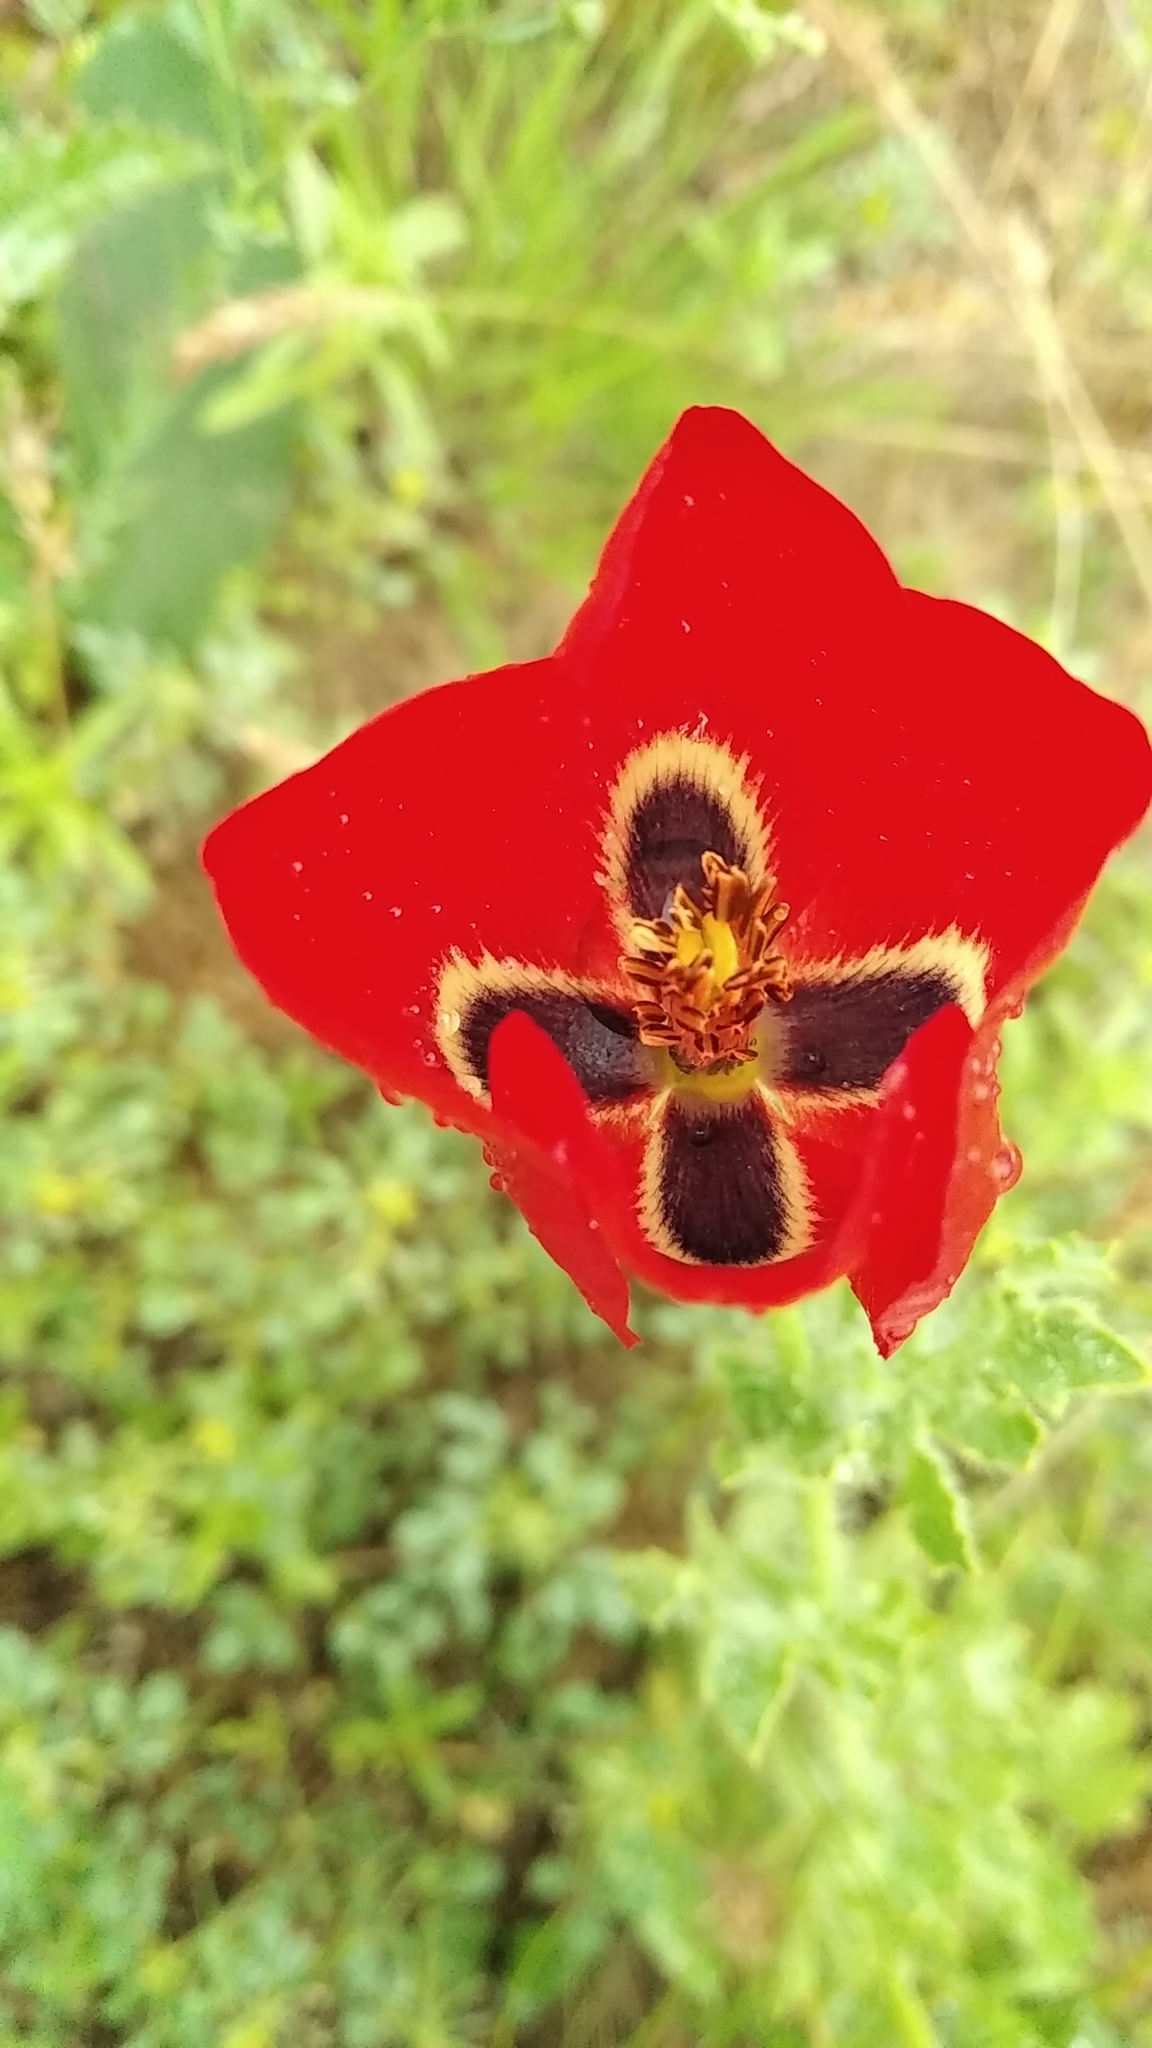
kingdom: Plantae
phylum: Tracheophyta
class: Magnoliopsida
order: Ranunculales
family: Papaveraceae
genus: Glaucium
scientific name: Glaucium corniculatum
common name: Red horned-poppy
